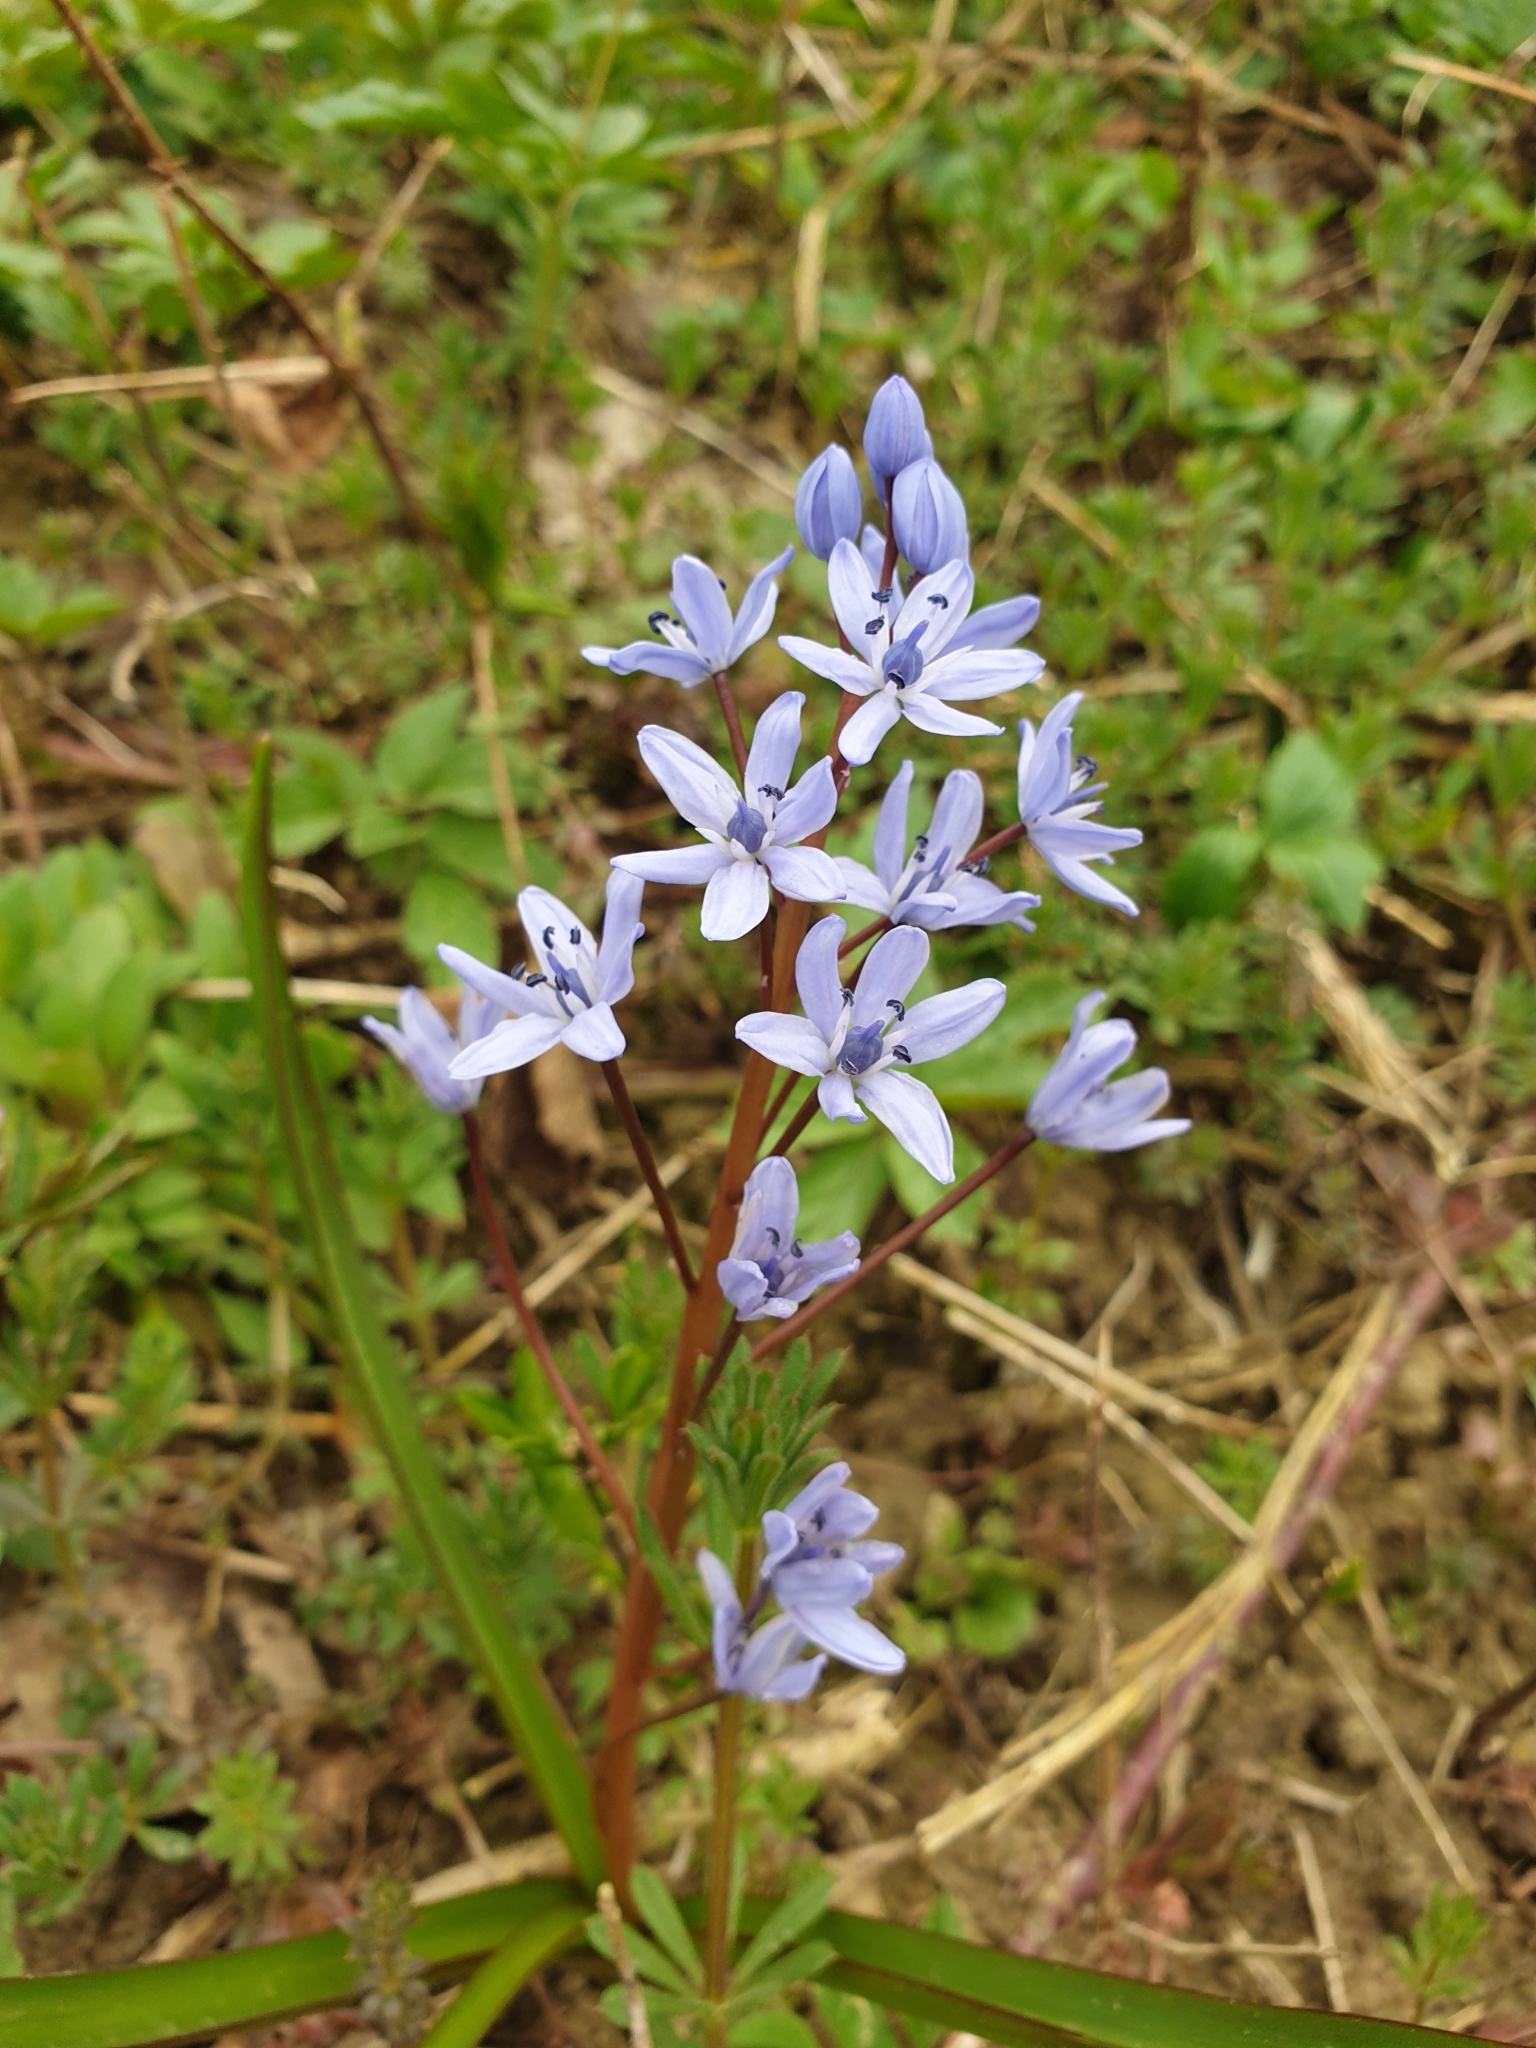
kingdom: Plantae
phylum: Tracheophyta
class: Liliopsida
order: Asparagales
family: Asparagaceae
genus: Scilla
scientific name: Scilla bifolia
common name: Alpine squill
